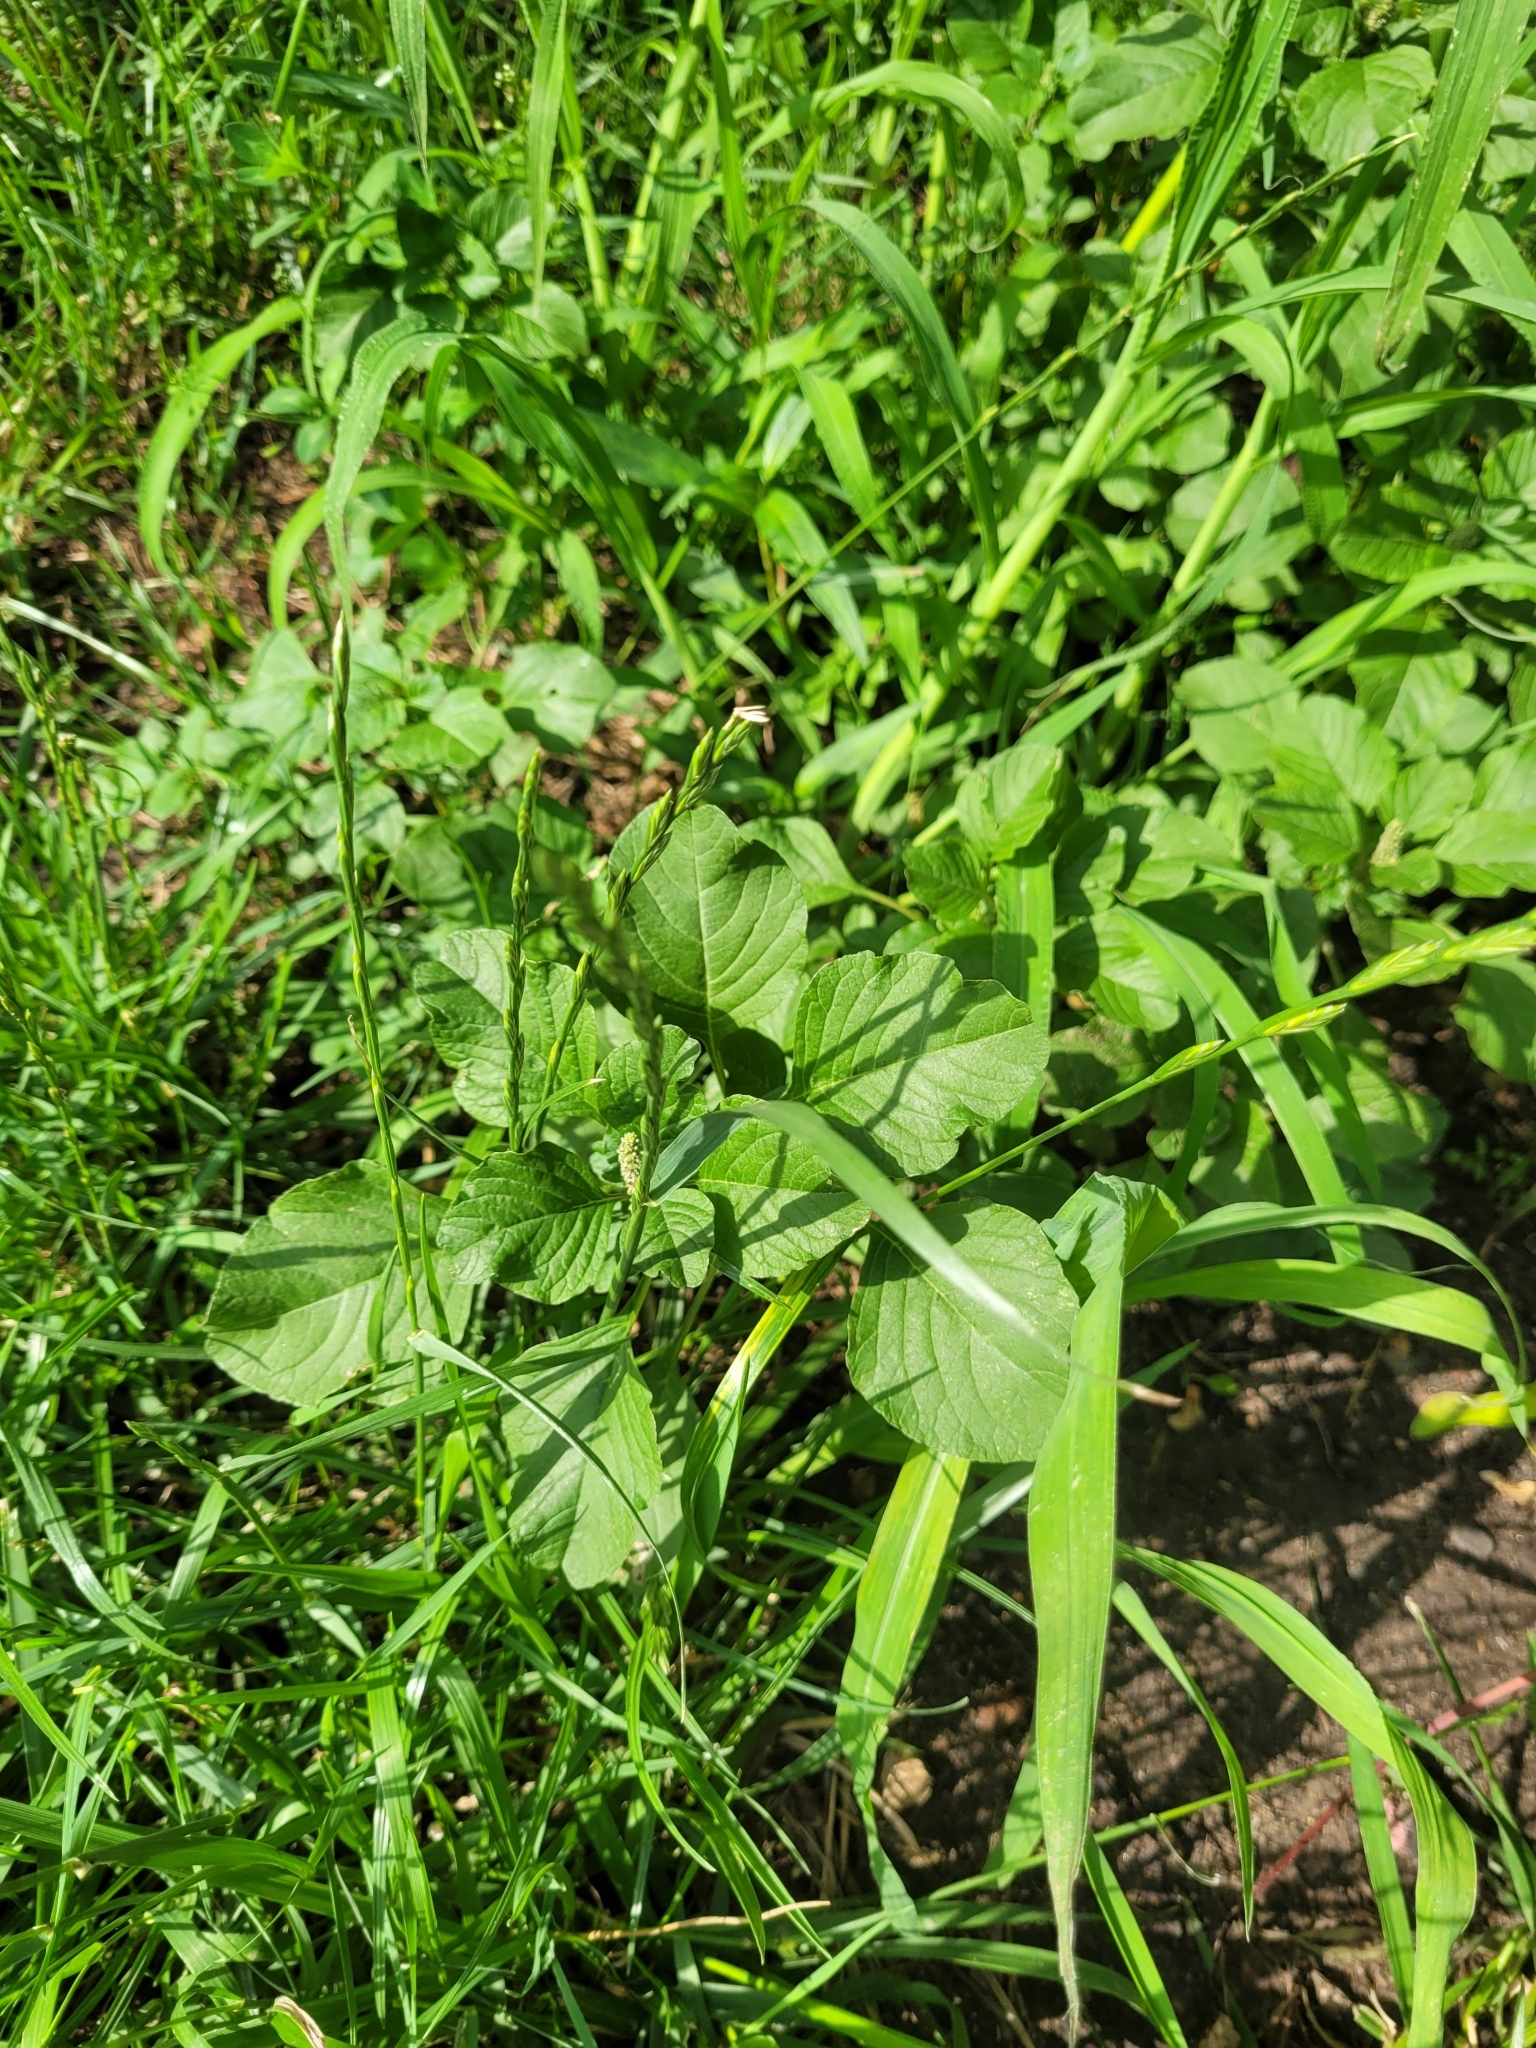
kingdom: Plantae
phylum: Tracheophyta
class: Magnoliopsida
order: Caryophyllales
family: Amaranthaceae
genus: Amaranthus
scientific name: Amaranthus blitum
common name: Purple amaranth
